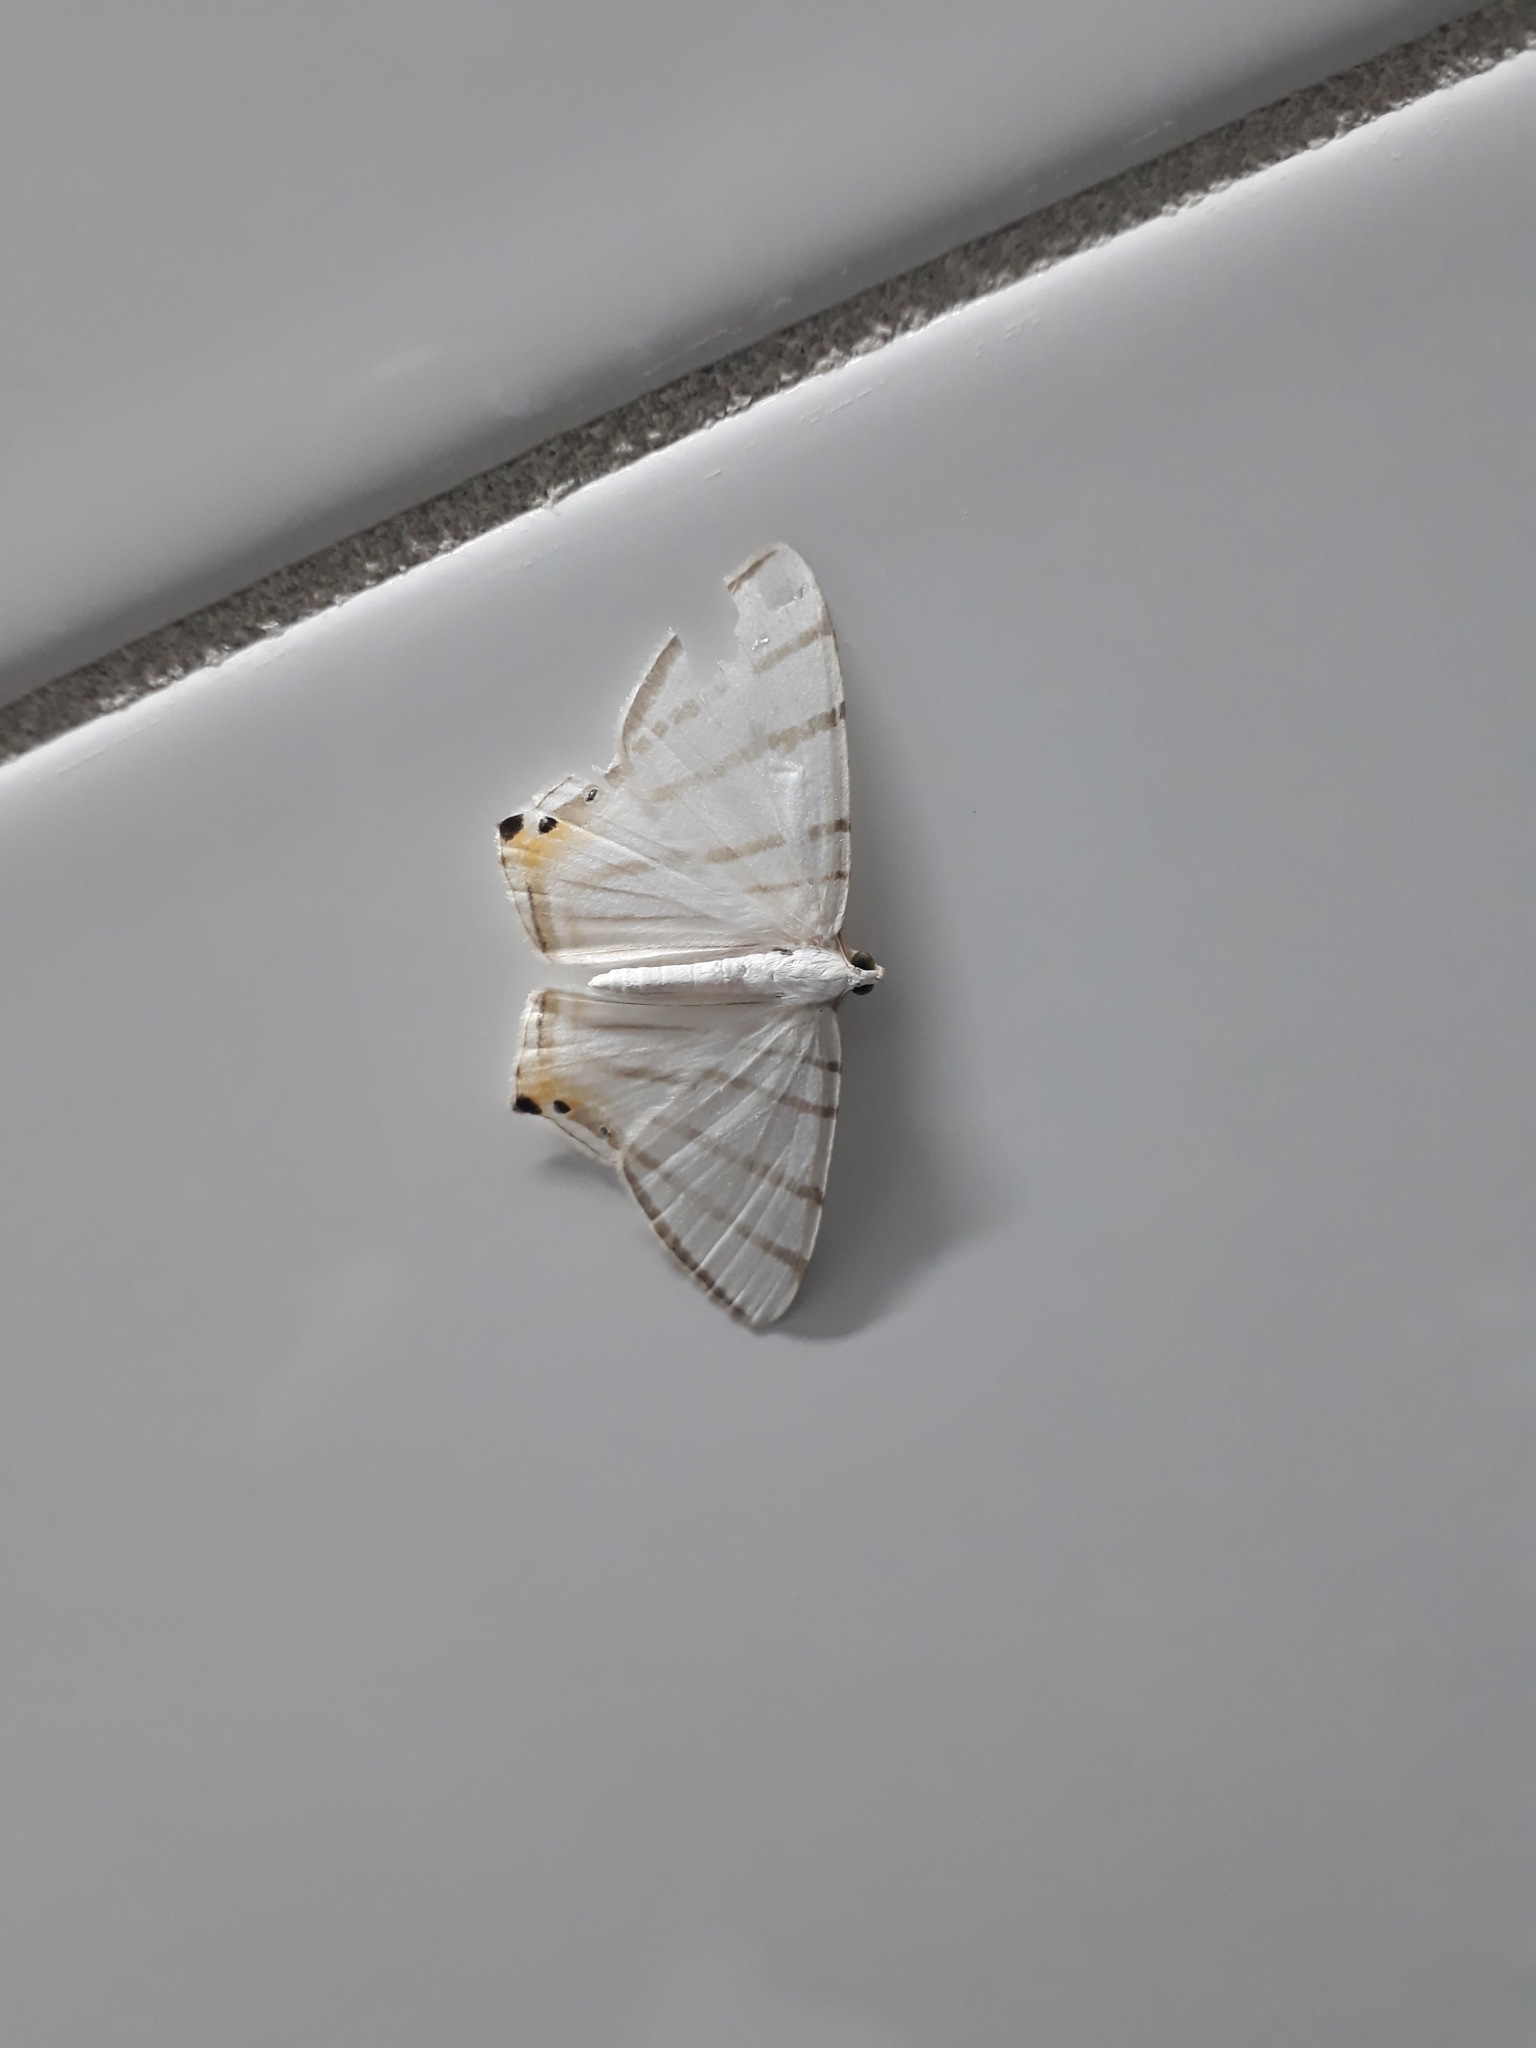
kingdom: Animalia
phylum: Arthropoda
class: Insecta
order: Lepidoptera
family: Geometridae
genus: Opisthoxia
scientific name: Opisthoxia metargyria
